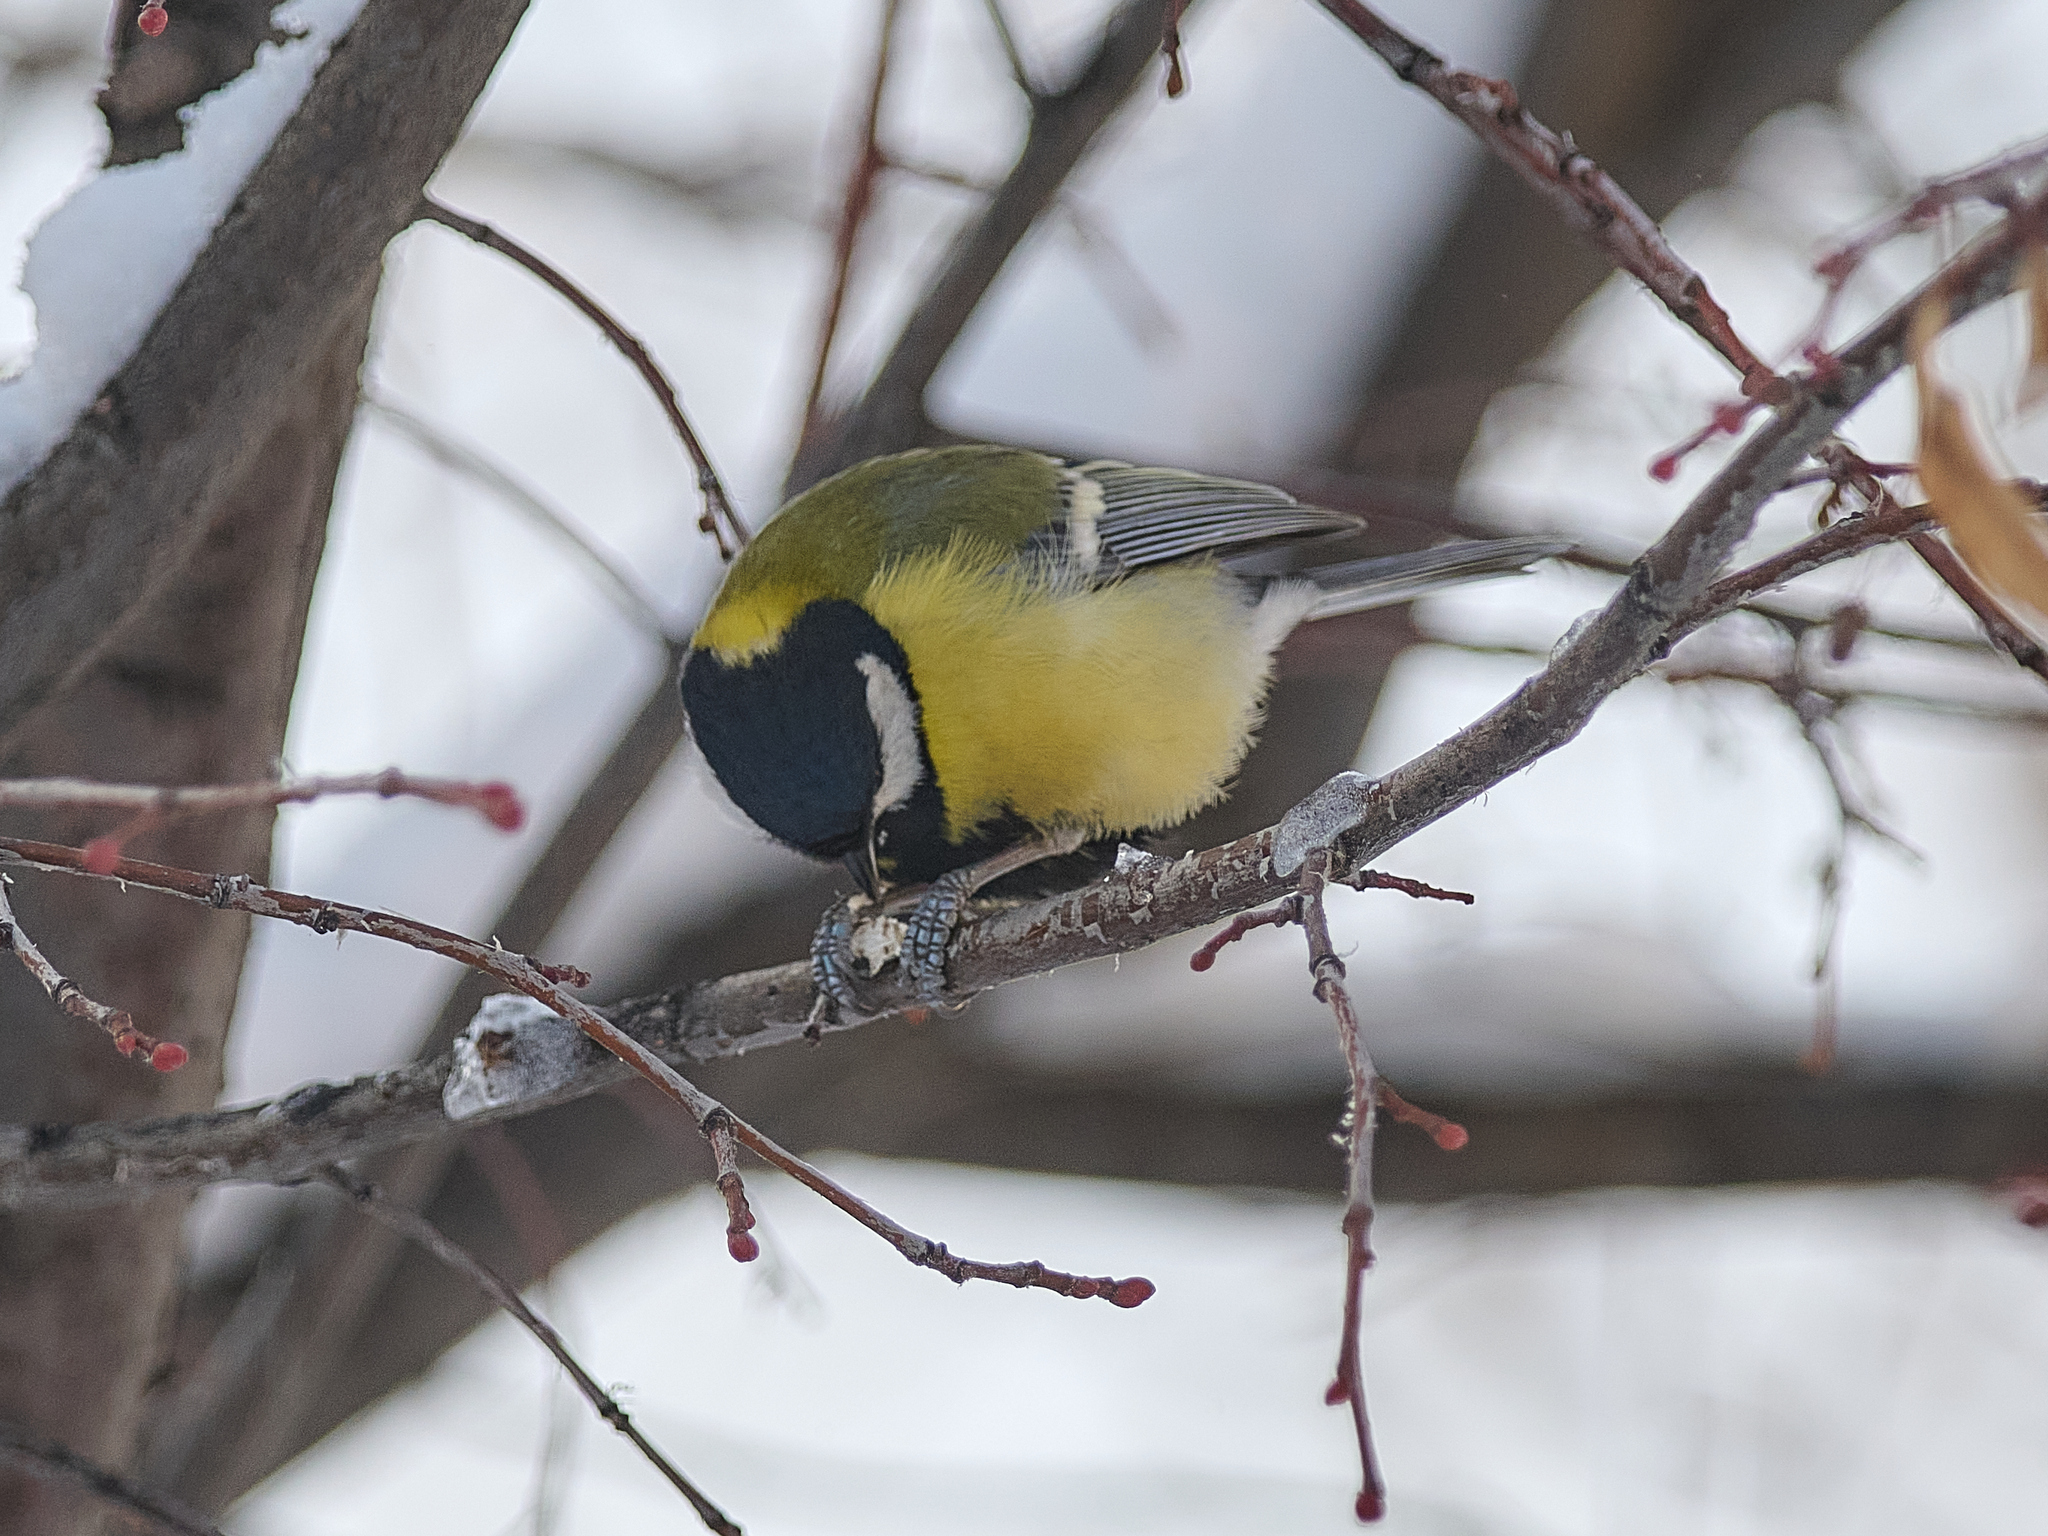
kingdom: Animalia
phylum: Chordata
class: Aves
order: Passeriformes
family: Paridae
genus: Parus
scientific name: Parus major
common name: Great tit
